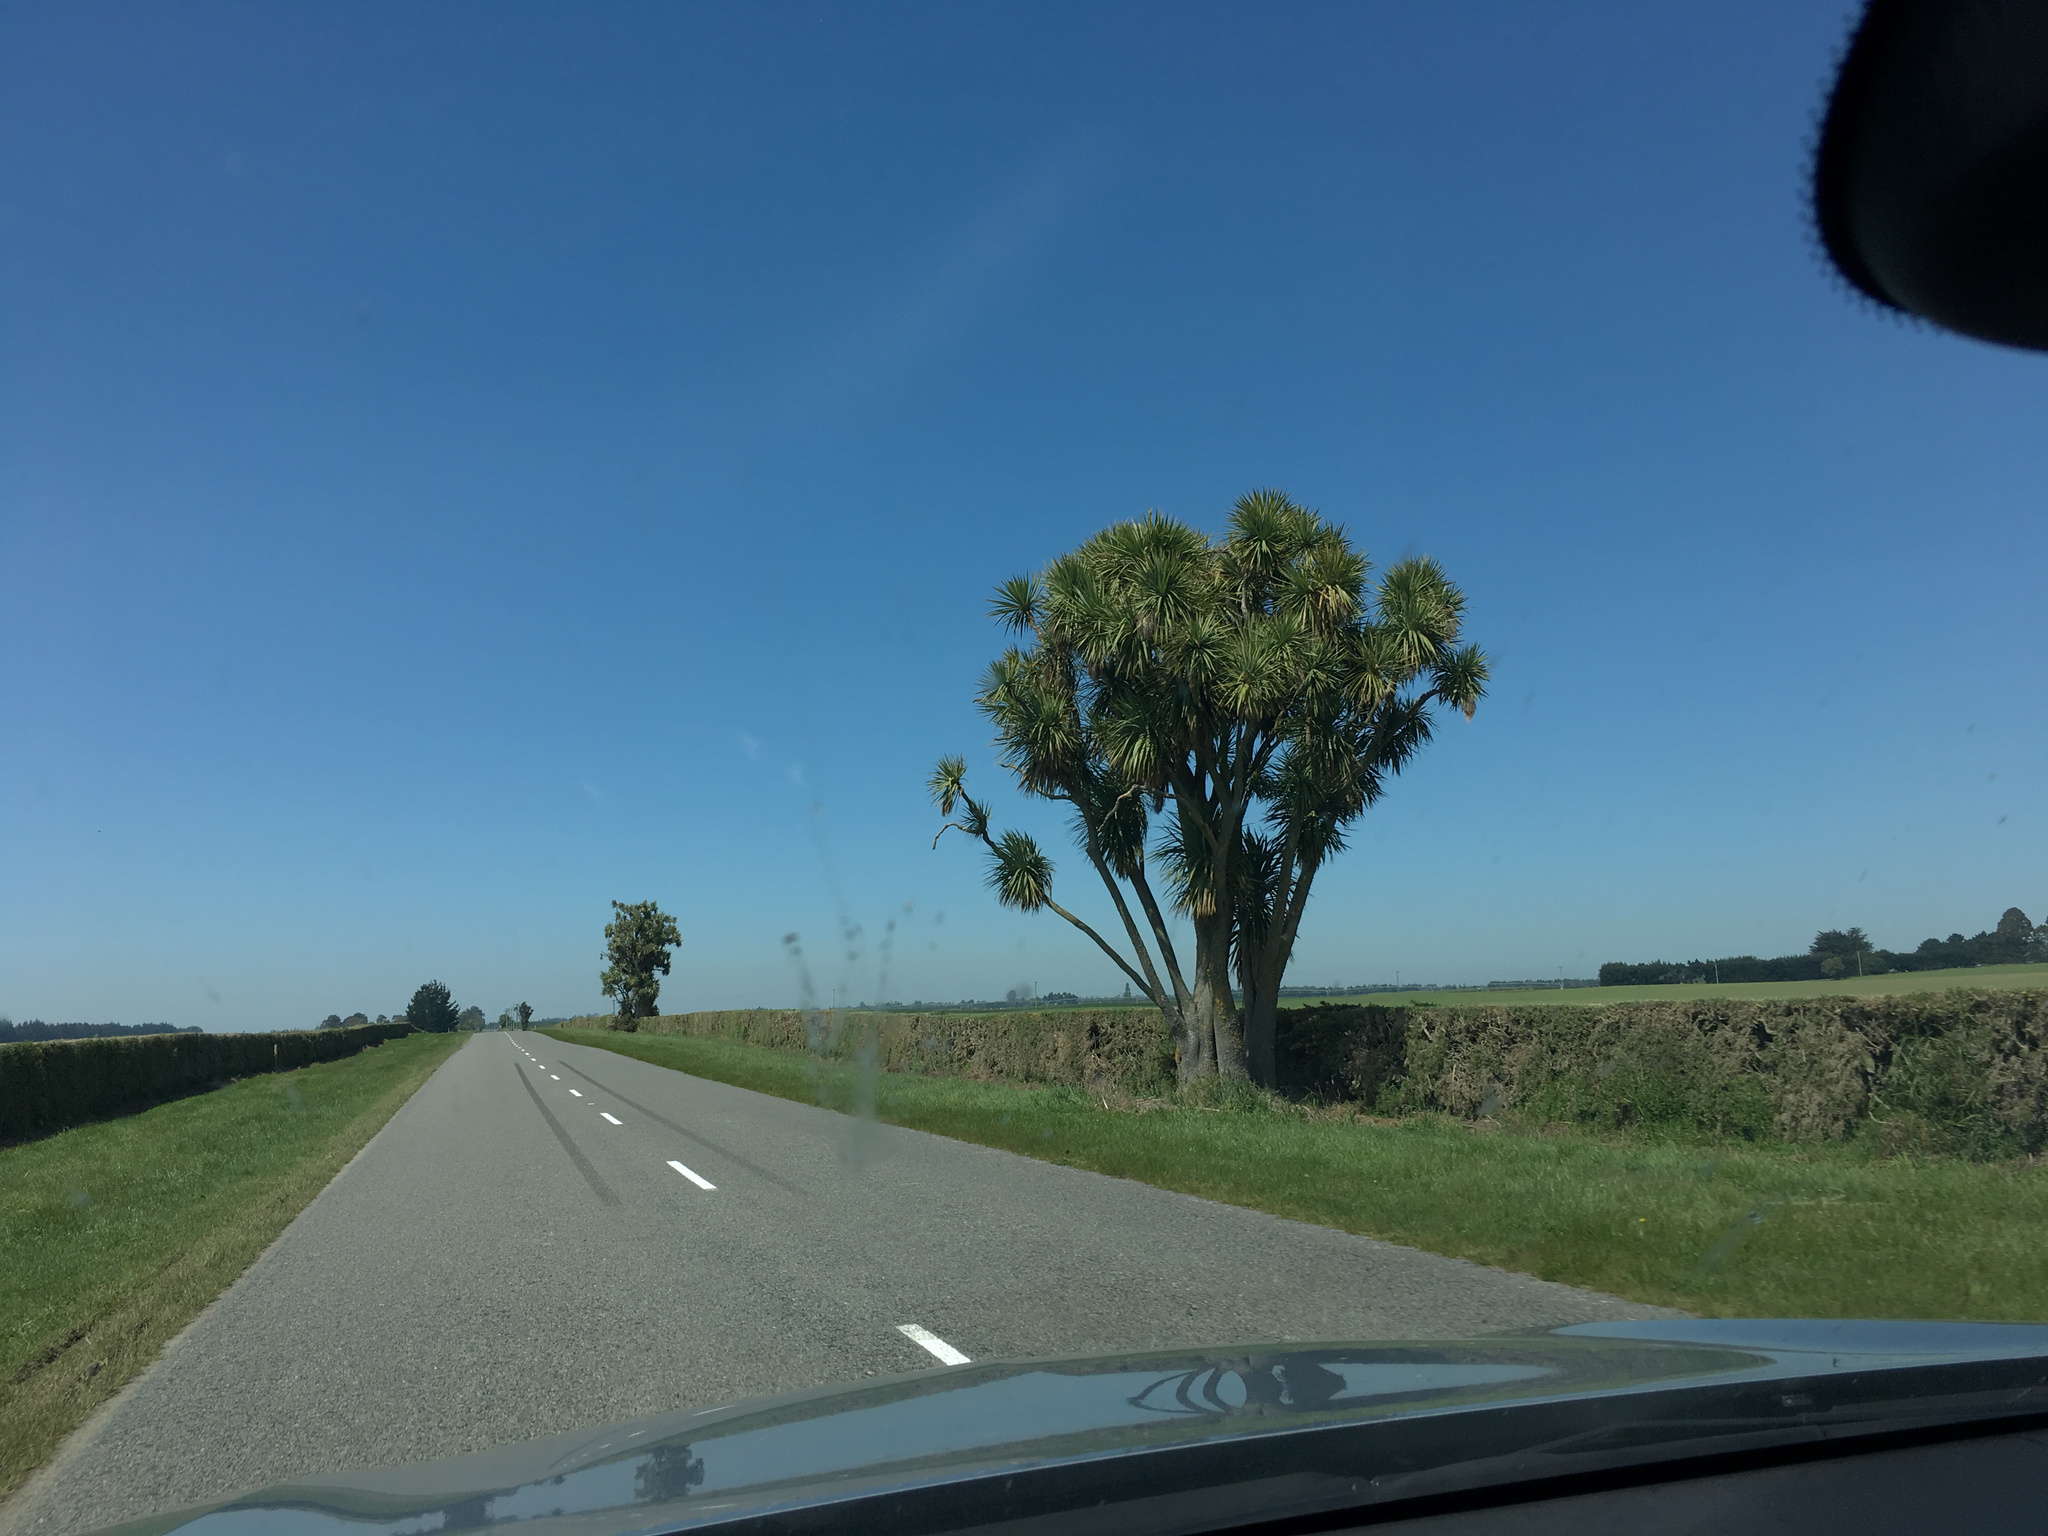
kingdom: Plantae
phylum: Tracheophyta
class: Liliopsida
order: Asparagales
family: Asparagaceae
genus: Cordyline
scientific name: Cordyline australis
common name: Cabbage-palm
